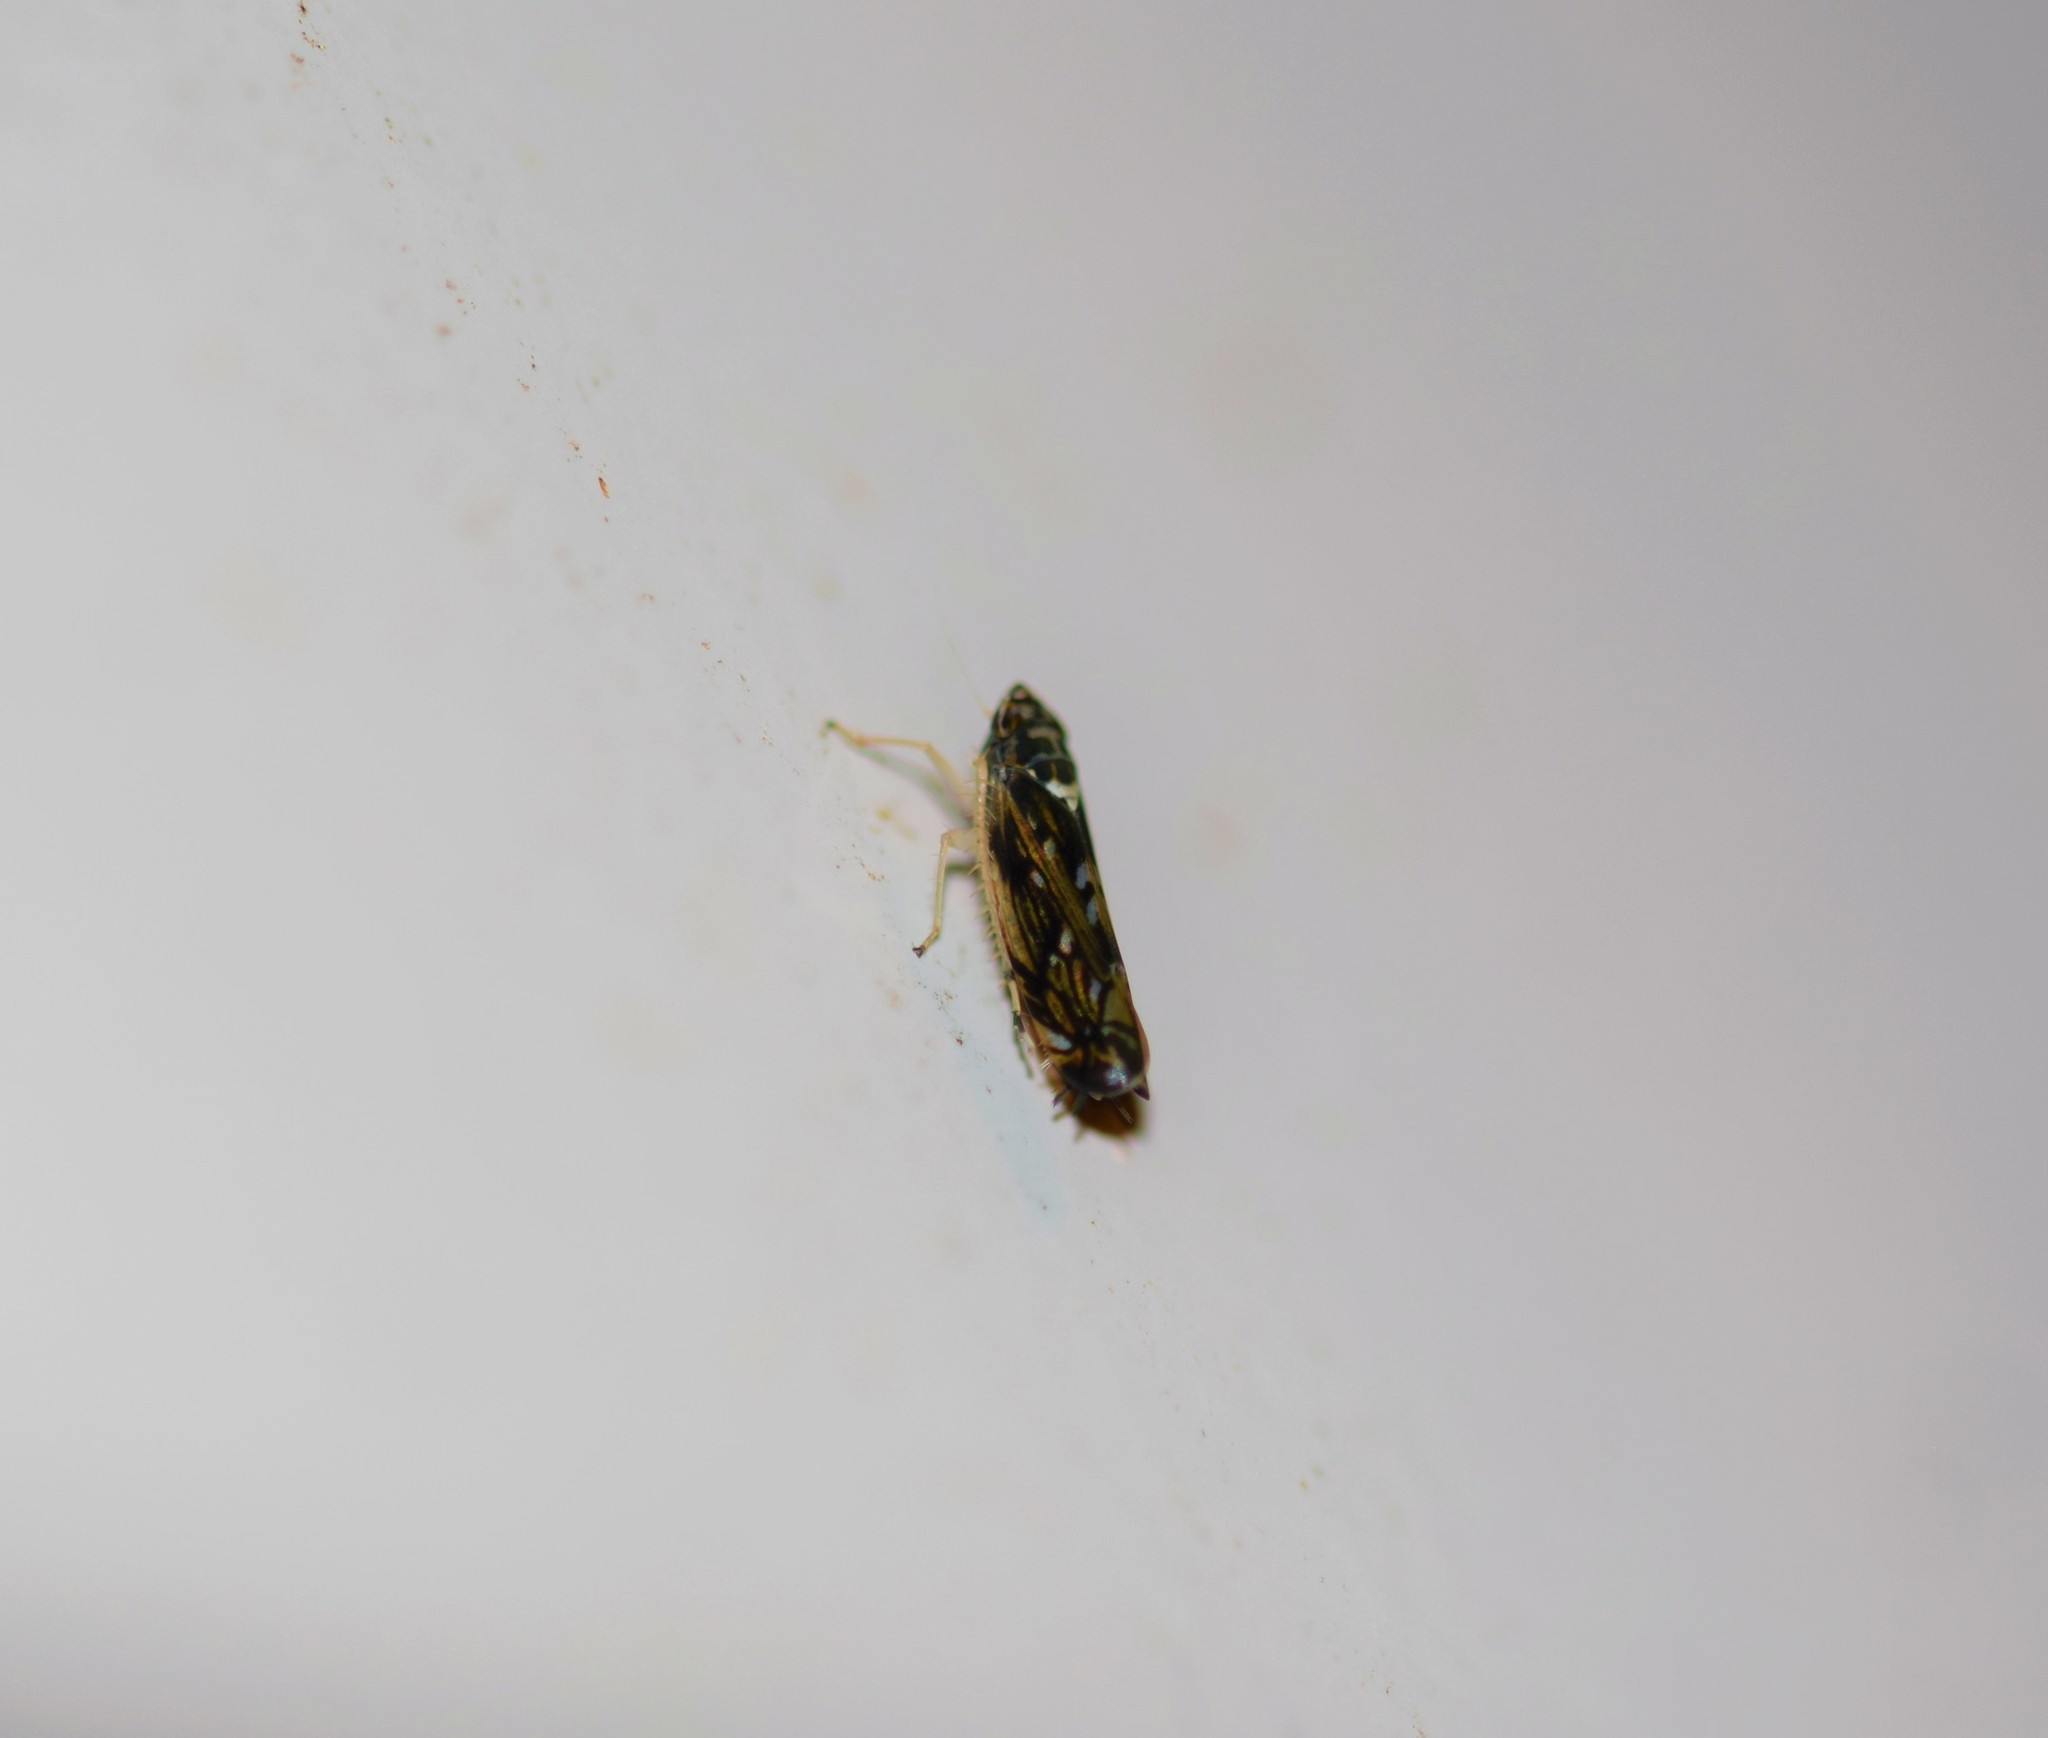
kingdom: Animalia
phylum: Arthropoda
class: Insecta
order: Hemiptera
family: Cicadellidae
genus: Scaphoideus
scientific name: Scaphoideus titanus
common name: American grapevine leafhopper
